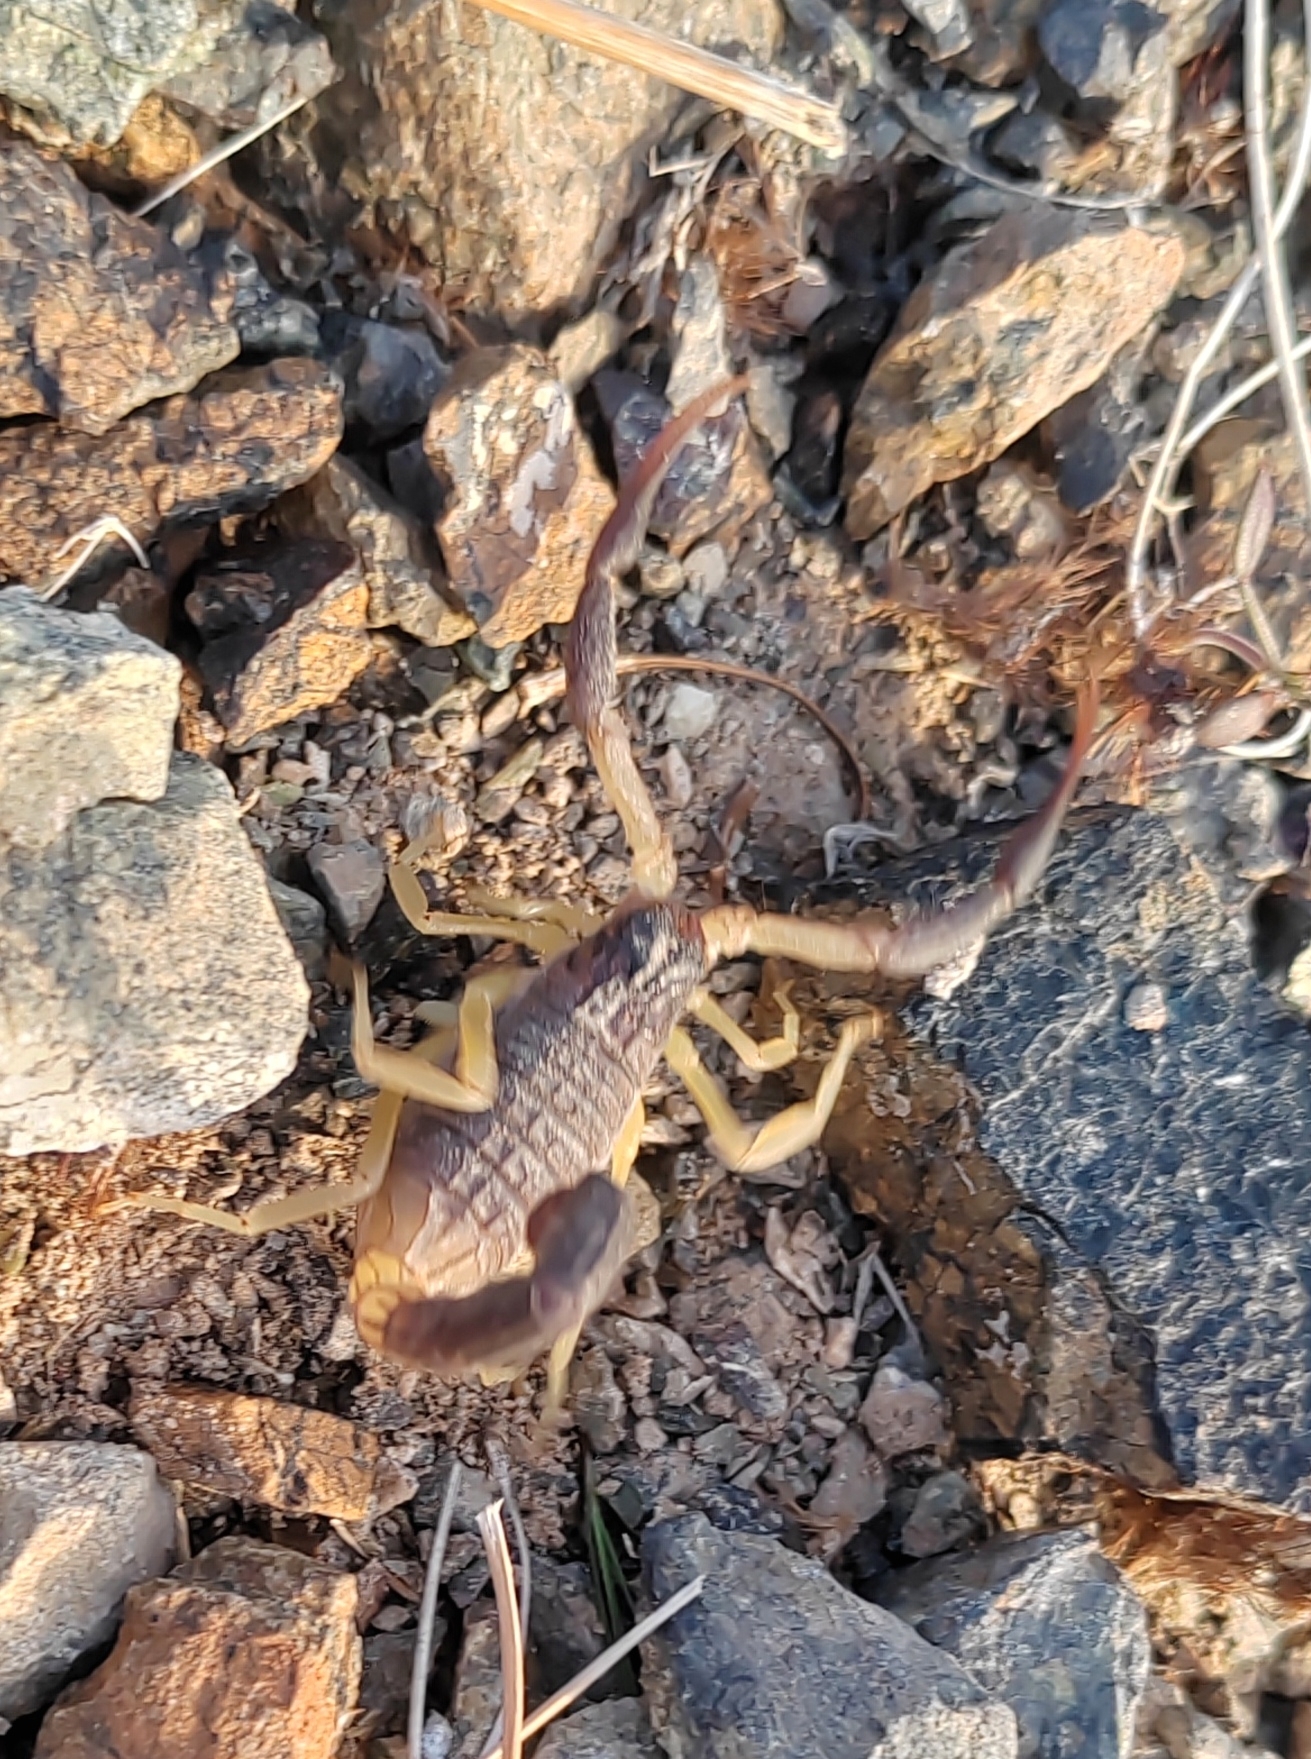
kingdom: Animalia
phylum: Arthropoda
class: Arachnida
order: Scorpiones
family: Buthidae
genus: Hottentotta
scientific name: Hottentotta jayakari
